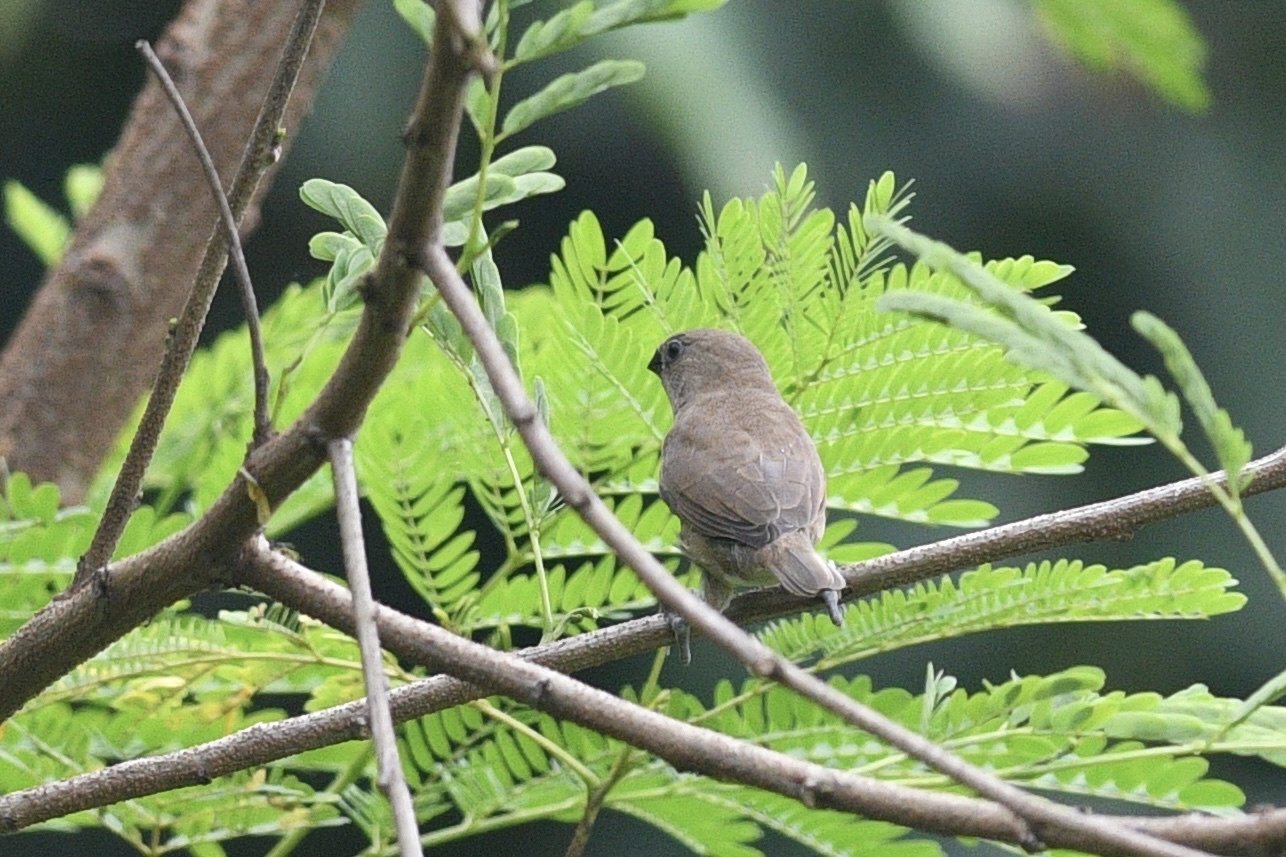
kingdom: Animalia
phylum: Chordata
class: Aves
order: Passeriformes
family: Estrildidae
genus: Lonchura
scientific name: Lonchura punctulata
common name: Scaly-breasted munia
